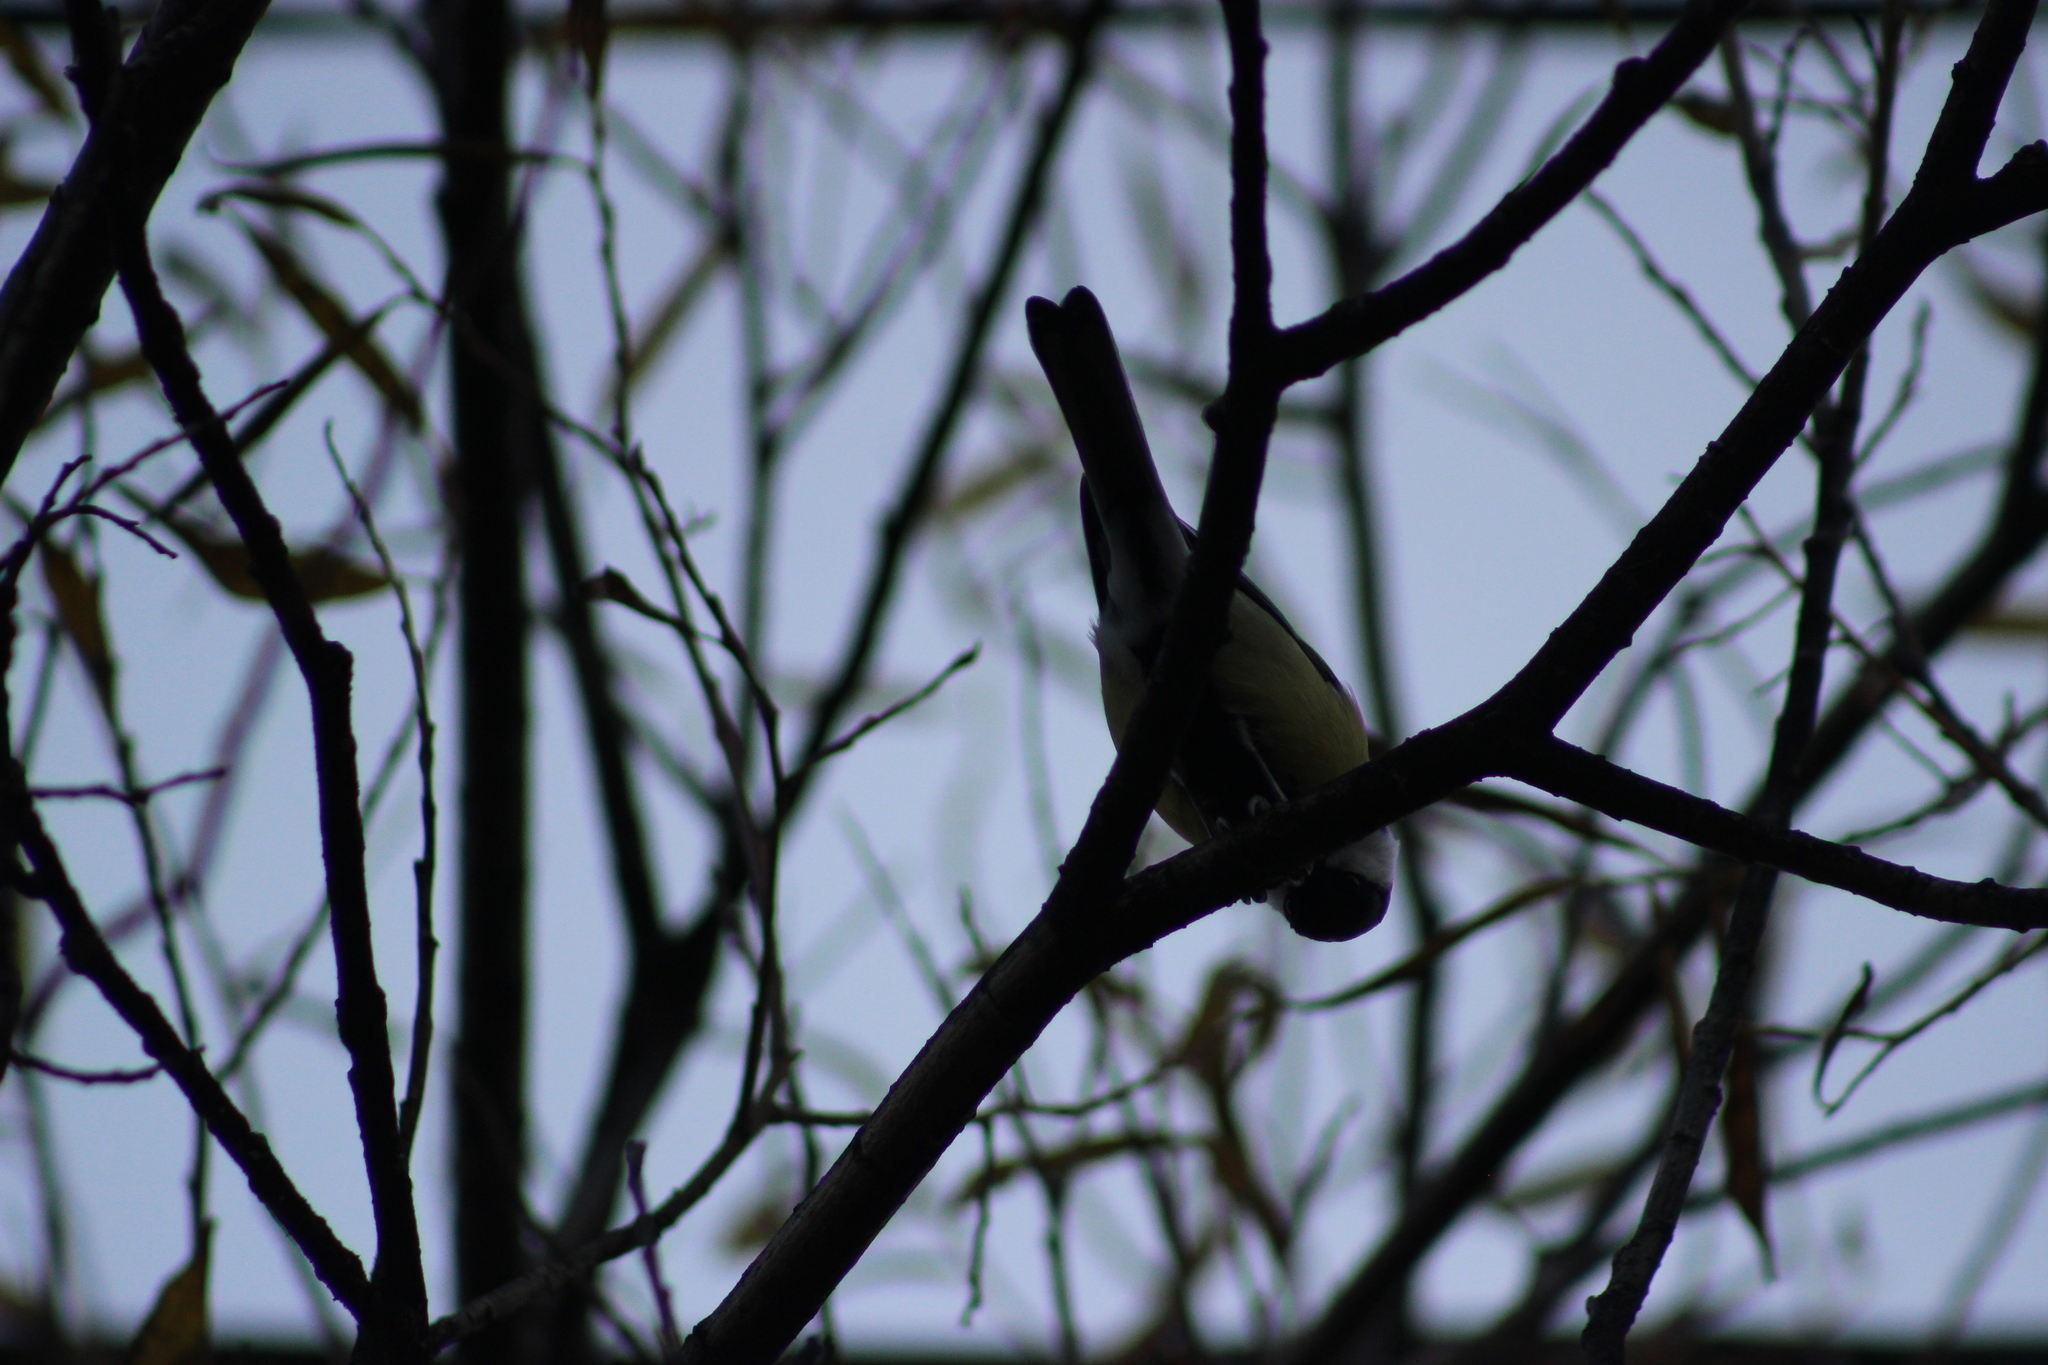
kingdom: Animalia
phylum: Chordata
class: Aves
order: Passeriformes
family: Paridae
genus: Parus
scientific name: Parus major
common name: Great tit
